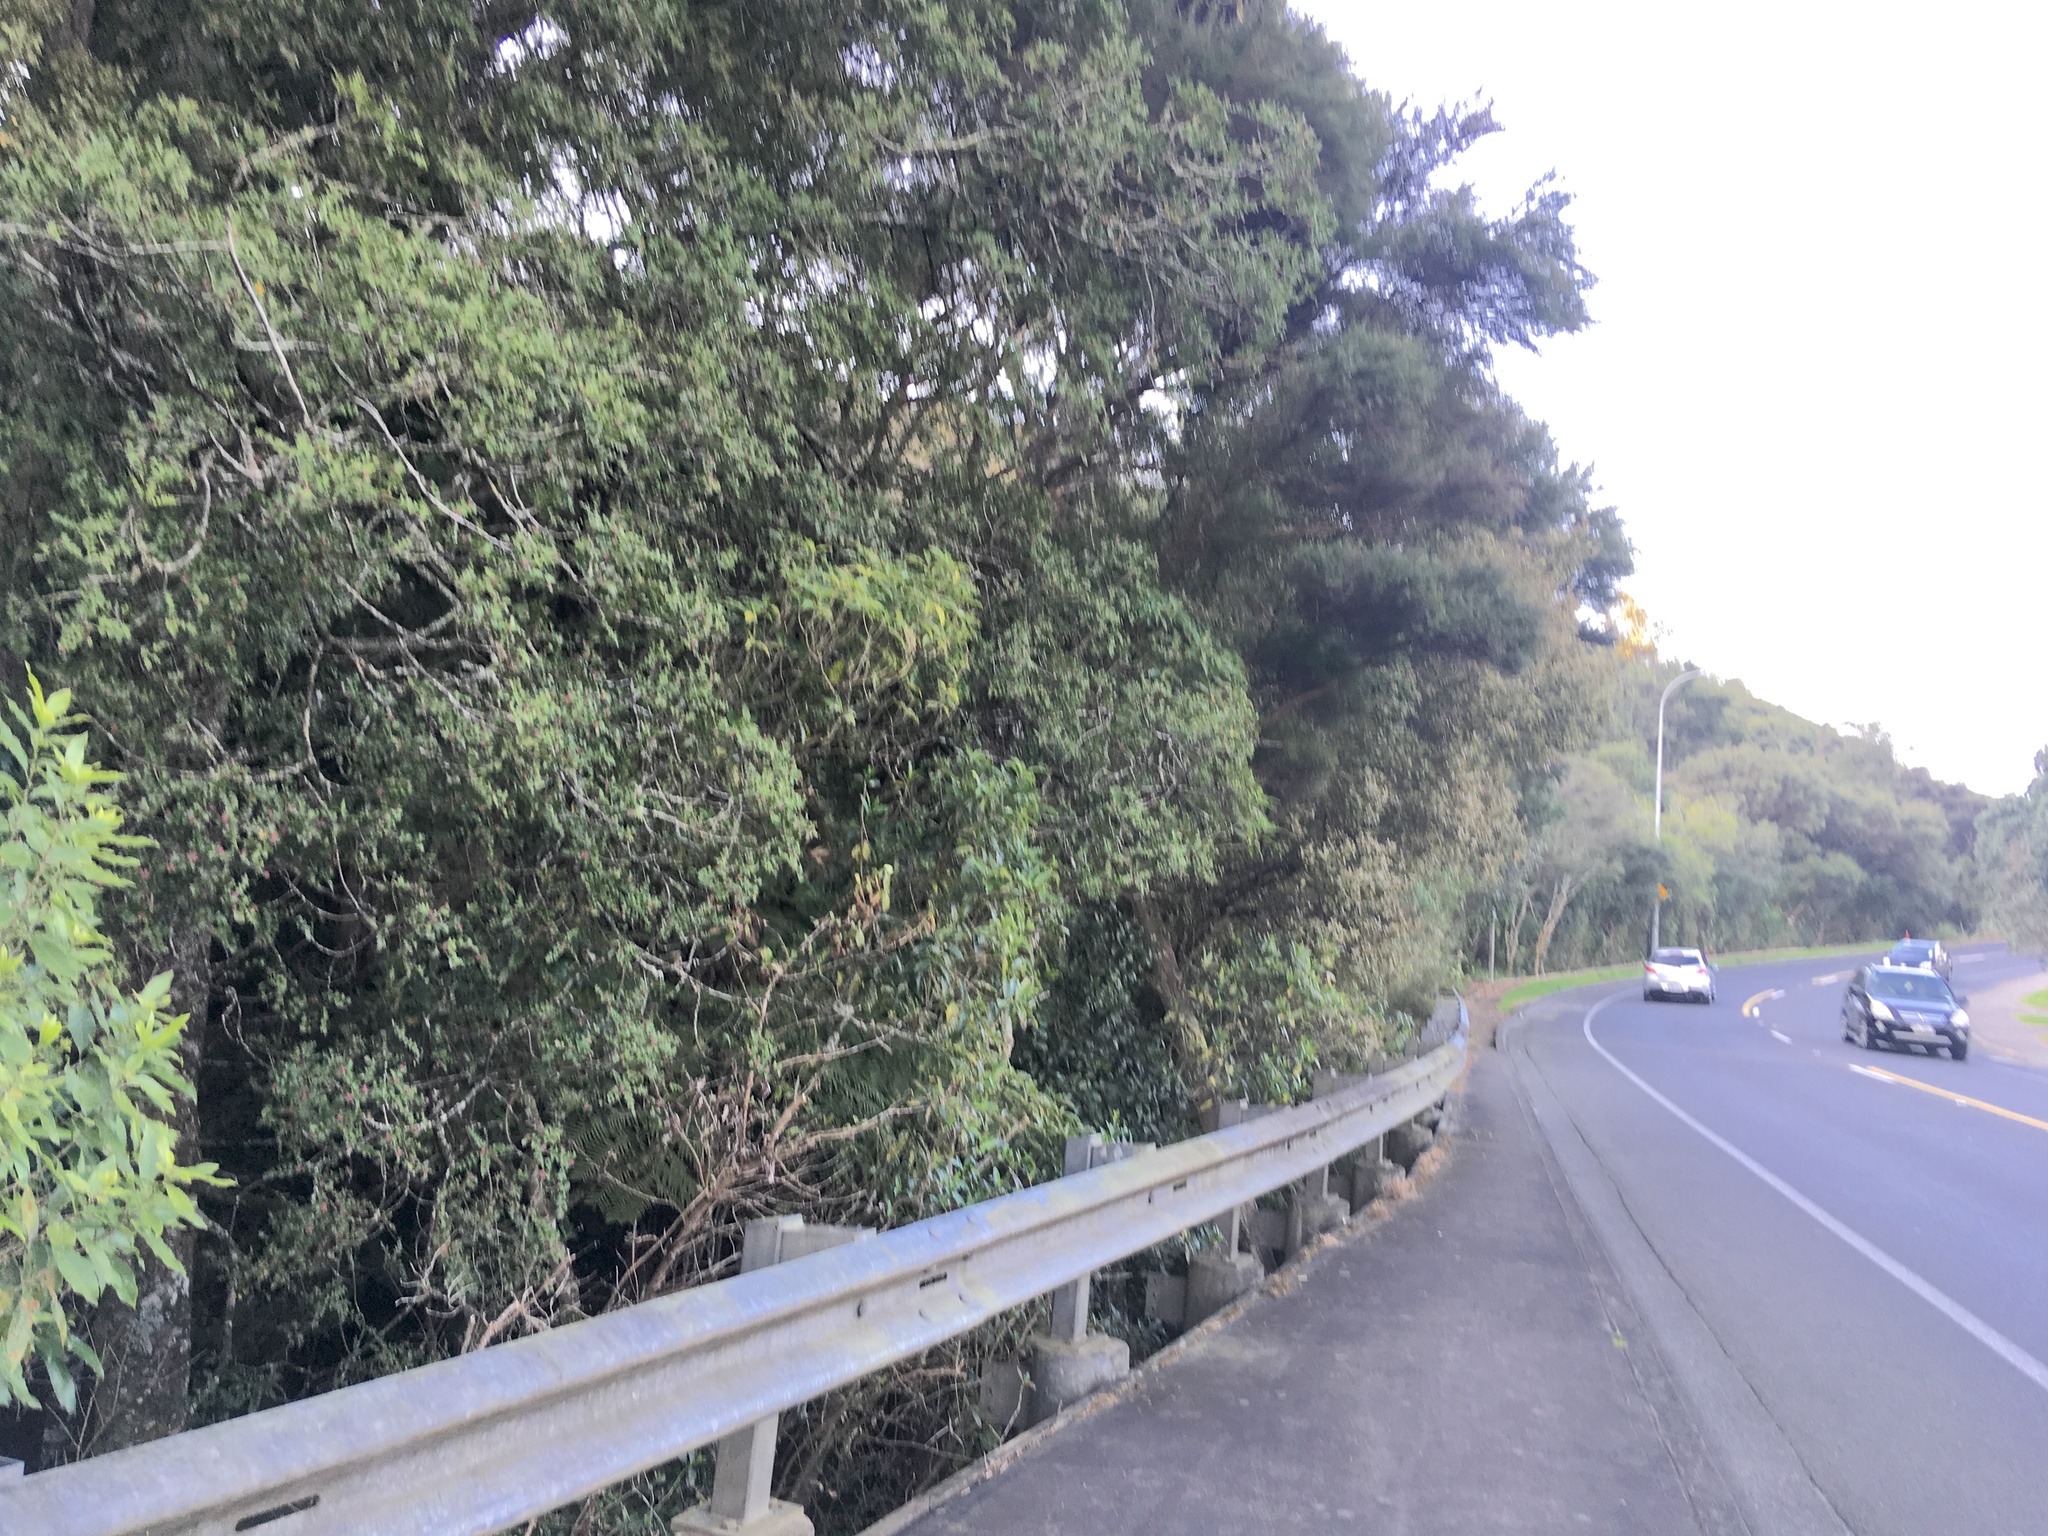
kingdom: Plantae
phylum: Tracheophyta
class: Pinopsida
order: Pinales
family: Phyllocladaceae
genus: Phyllocladus
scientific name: Phyllocladus trichomanoides
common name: Celery pine
